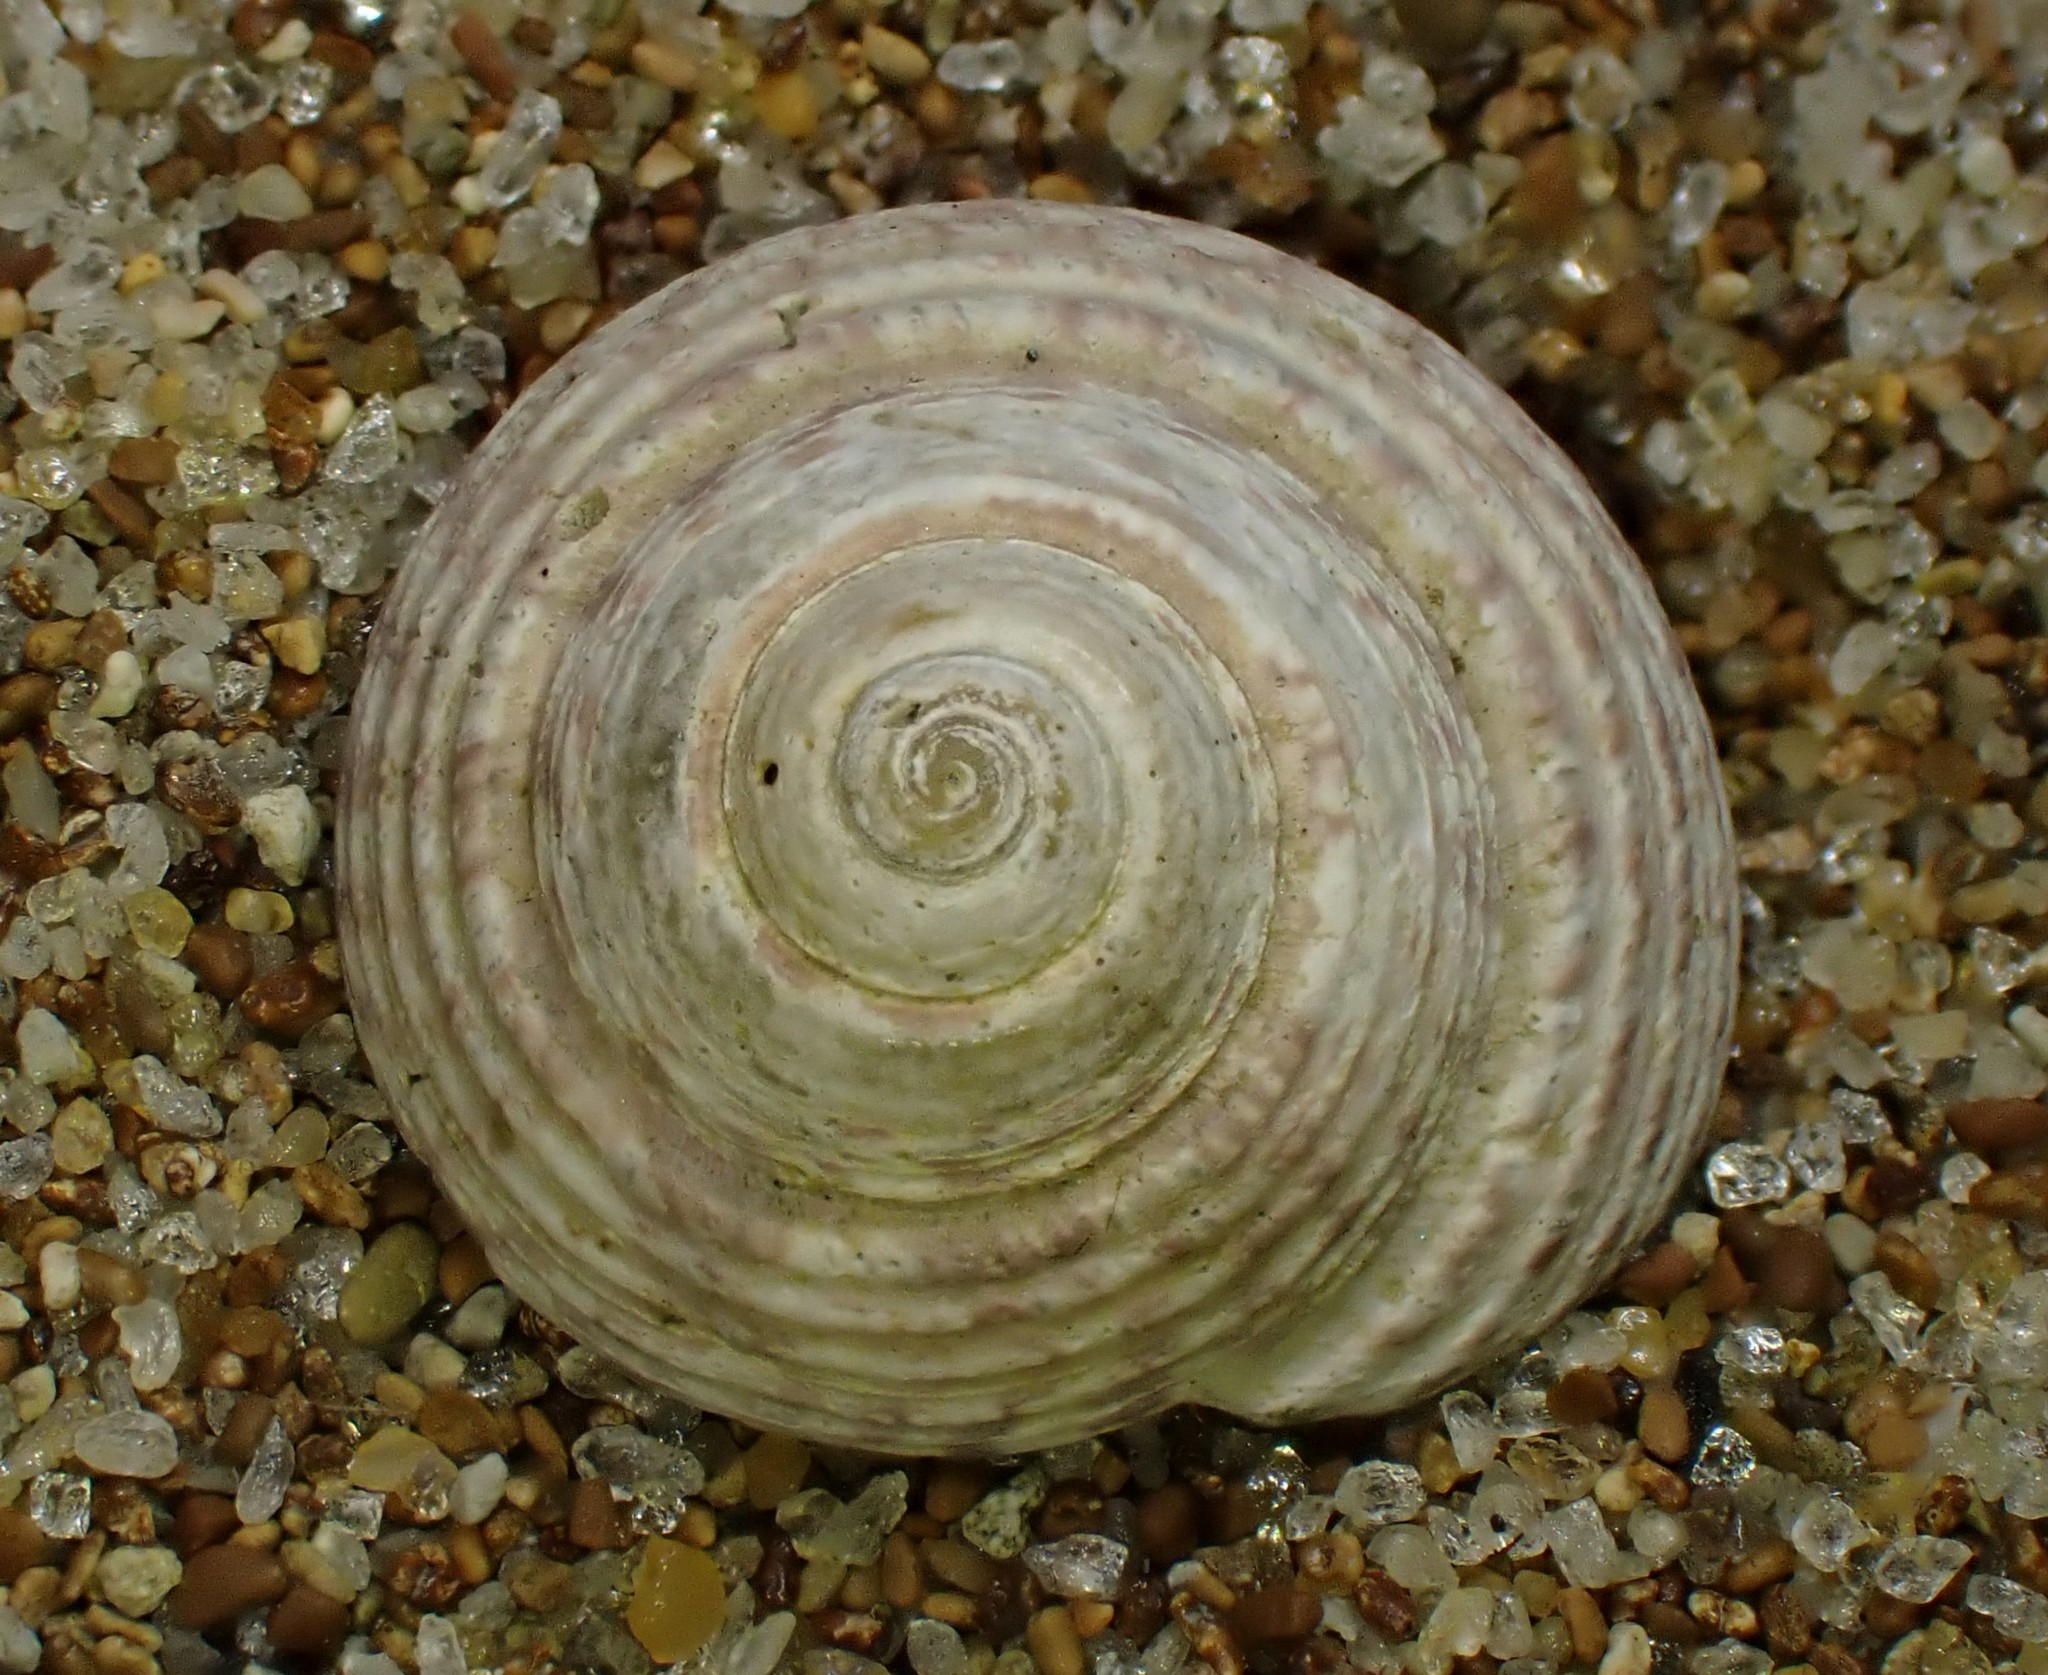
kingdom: Animalia
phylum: Mollusca
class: Gastropoda
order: Trochida
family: Trochidae
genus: Coelotrochus
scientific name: Coelotrochus tiaratus
